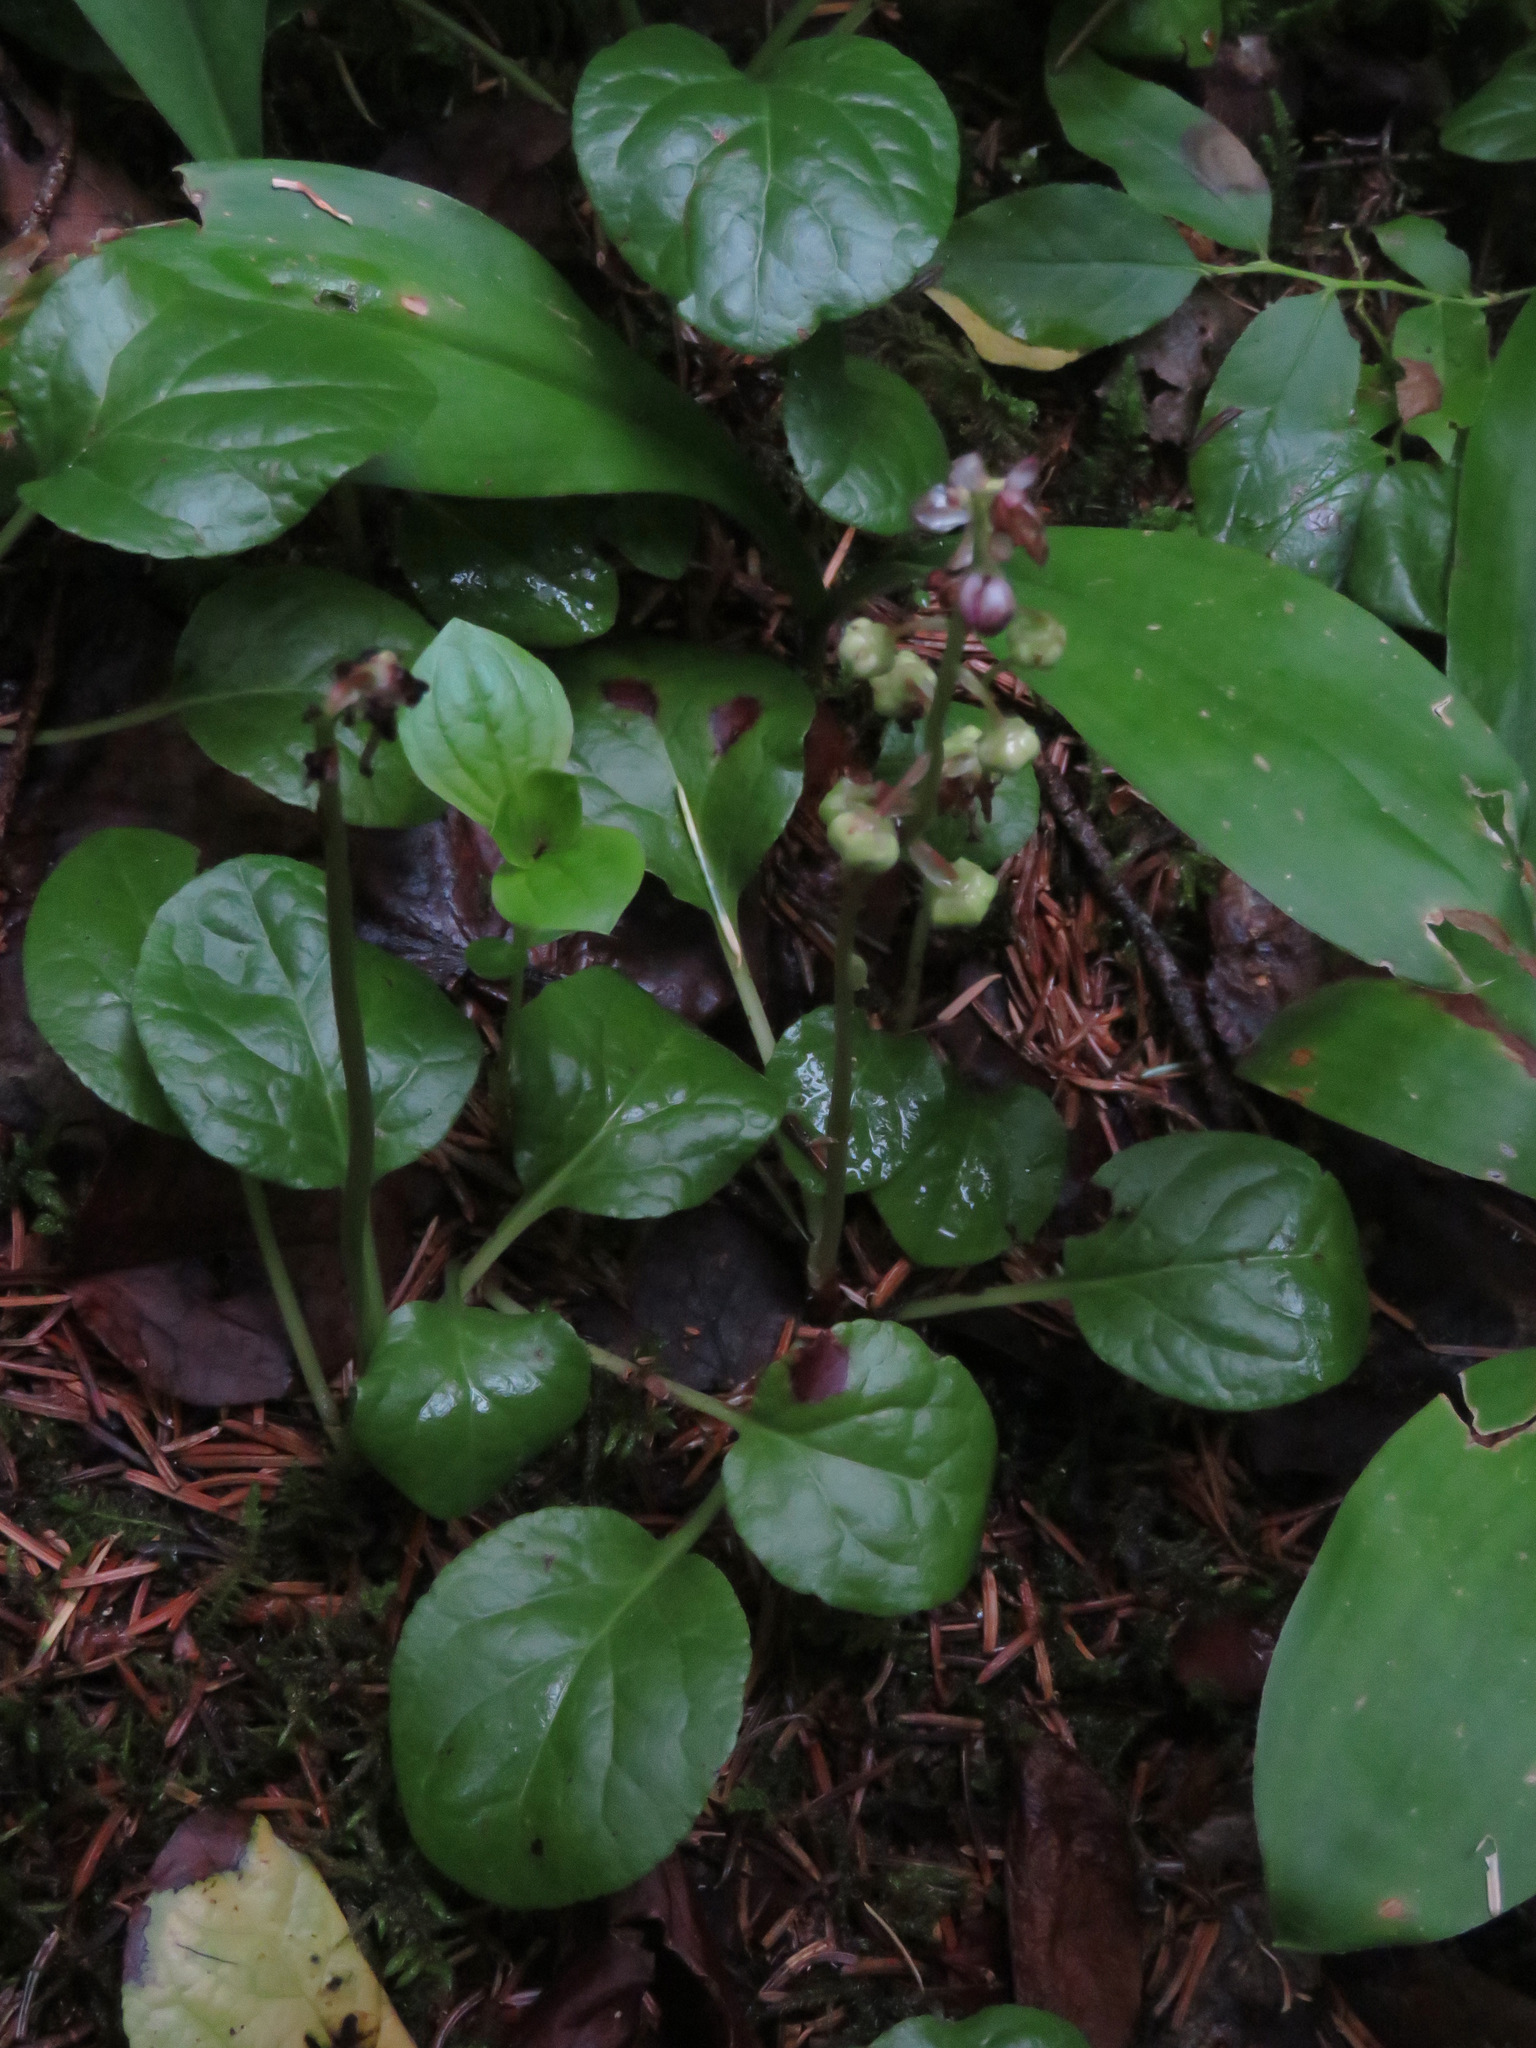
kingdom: Plantae
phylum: Tracheophyta
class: Magnoliopsida
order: Ericales
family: Ericaceae
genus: Pyrola
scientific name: Pyrola asarifolia
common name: Bog wintergreen
